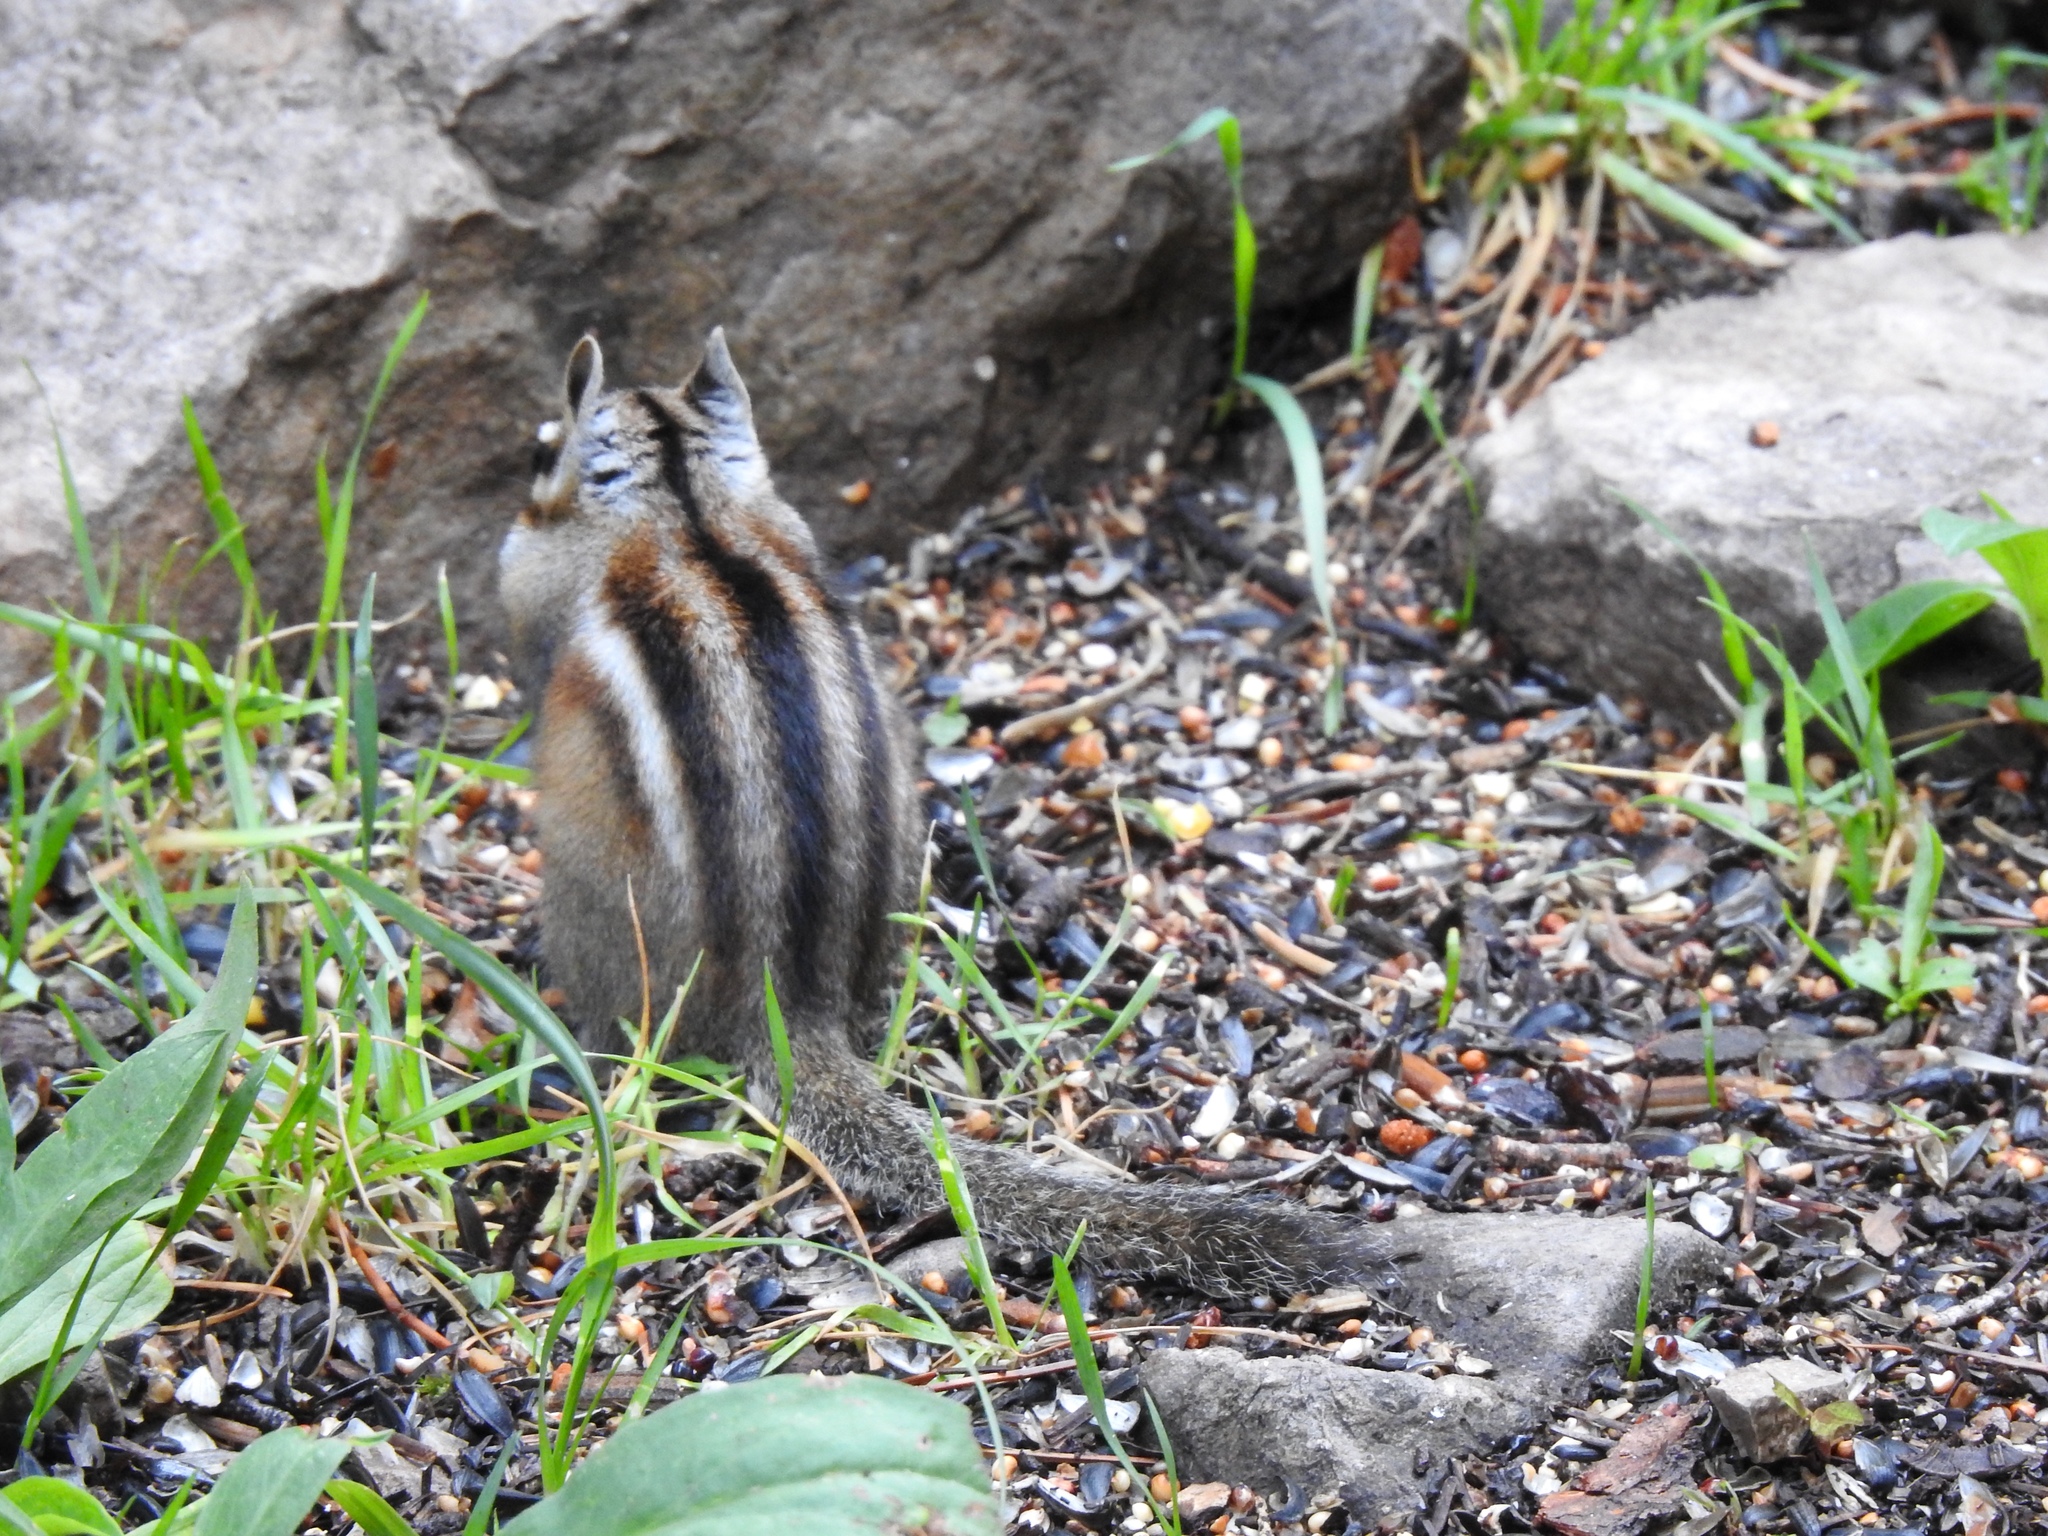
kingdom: Animalia
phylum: Chordata
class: Mammalia
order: Rodentia
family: Sciuridae
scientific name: Sciuridae
